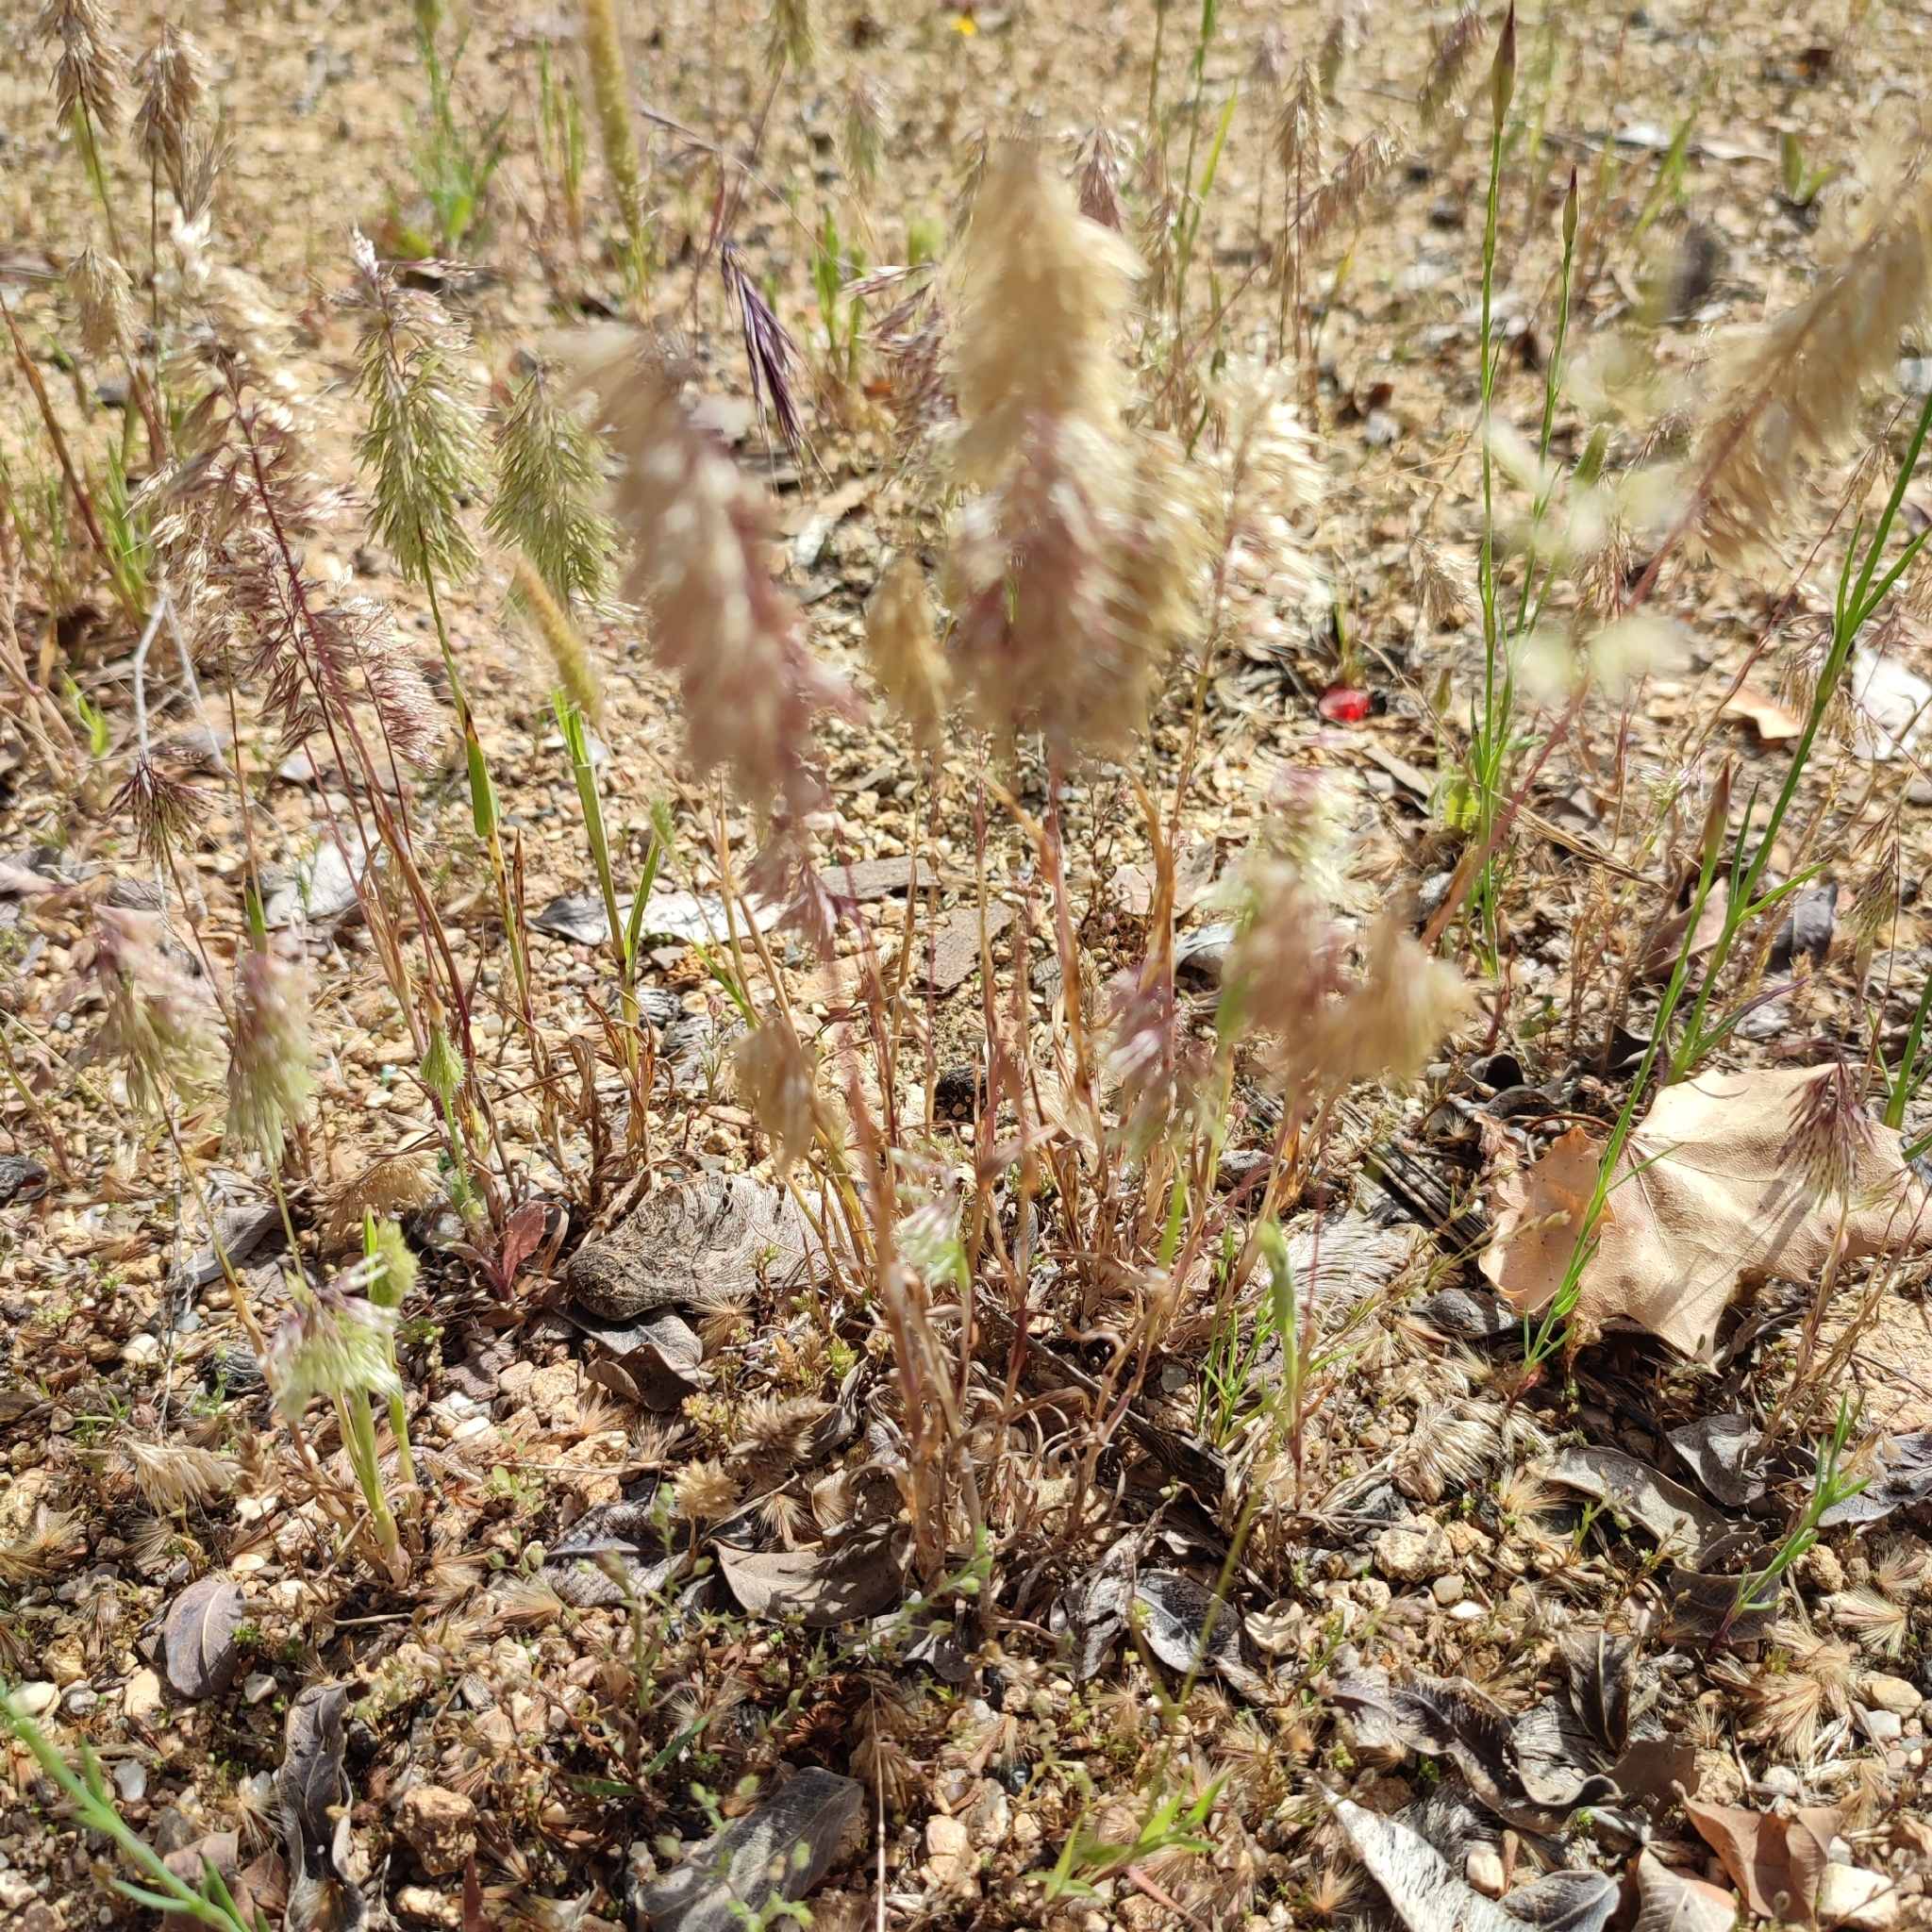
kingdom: Plantae
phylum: Tracheophyta
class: Liliopsida
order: Poales
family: Poaceae
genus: Lamarckia
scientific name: Lamarckia aurea
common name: Golden dog's-tail
